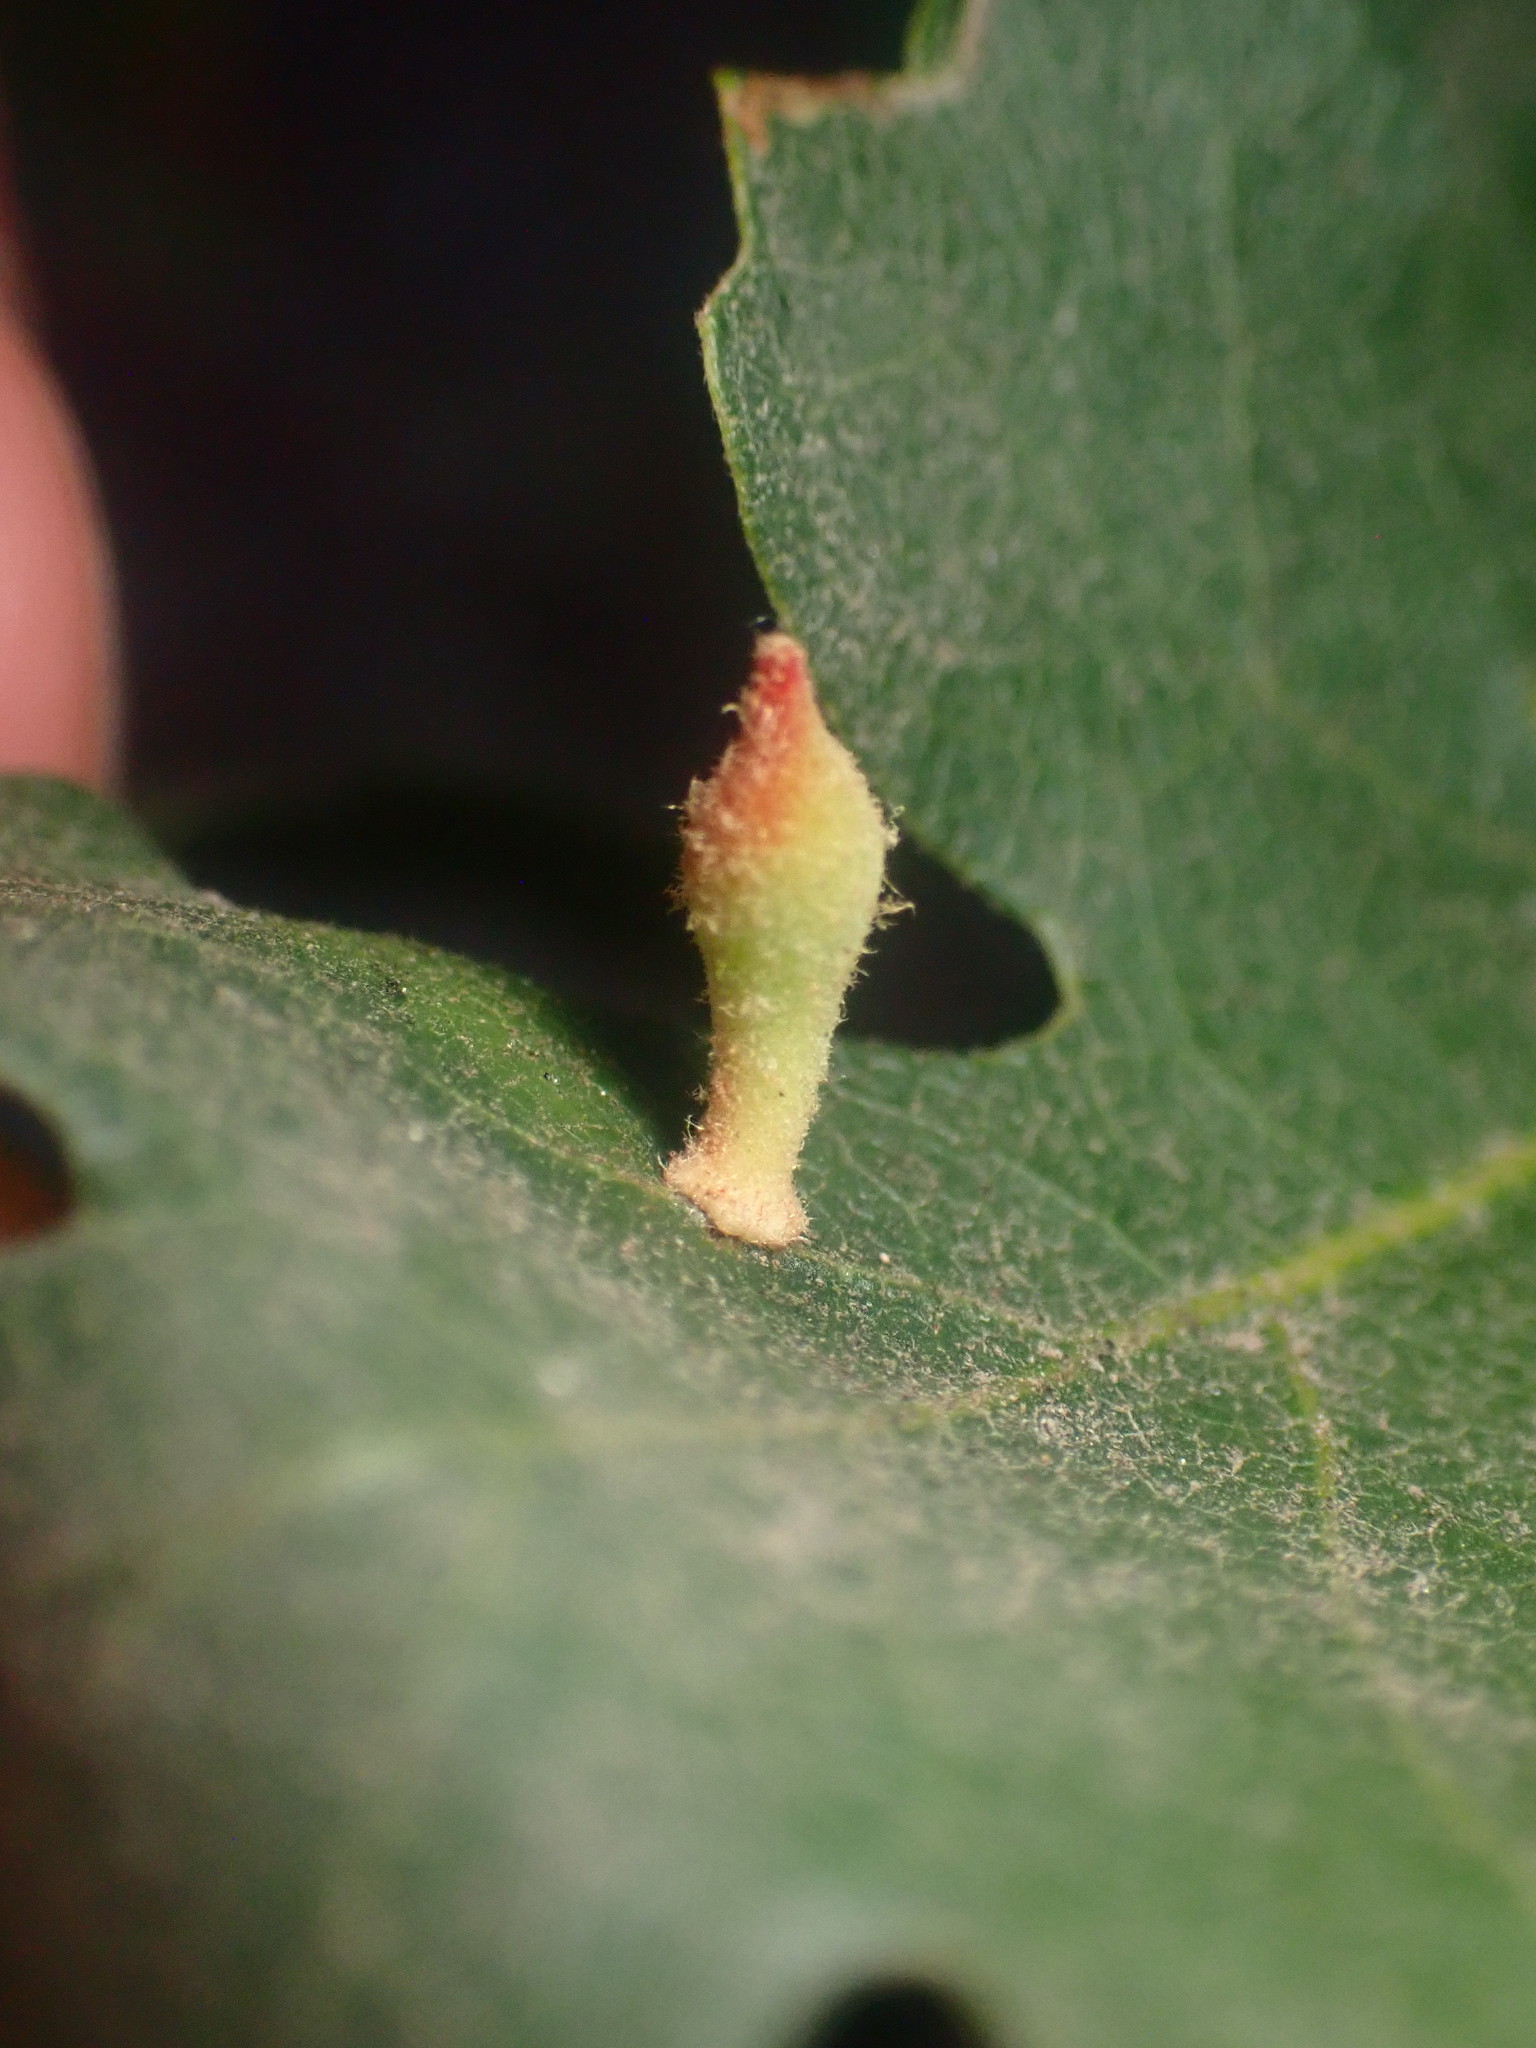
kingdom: Animalia
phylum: Arthropoda
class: Insecta
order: Hymenoptera
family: Cynipidae
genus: Atrusca
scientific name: Atrusca
